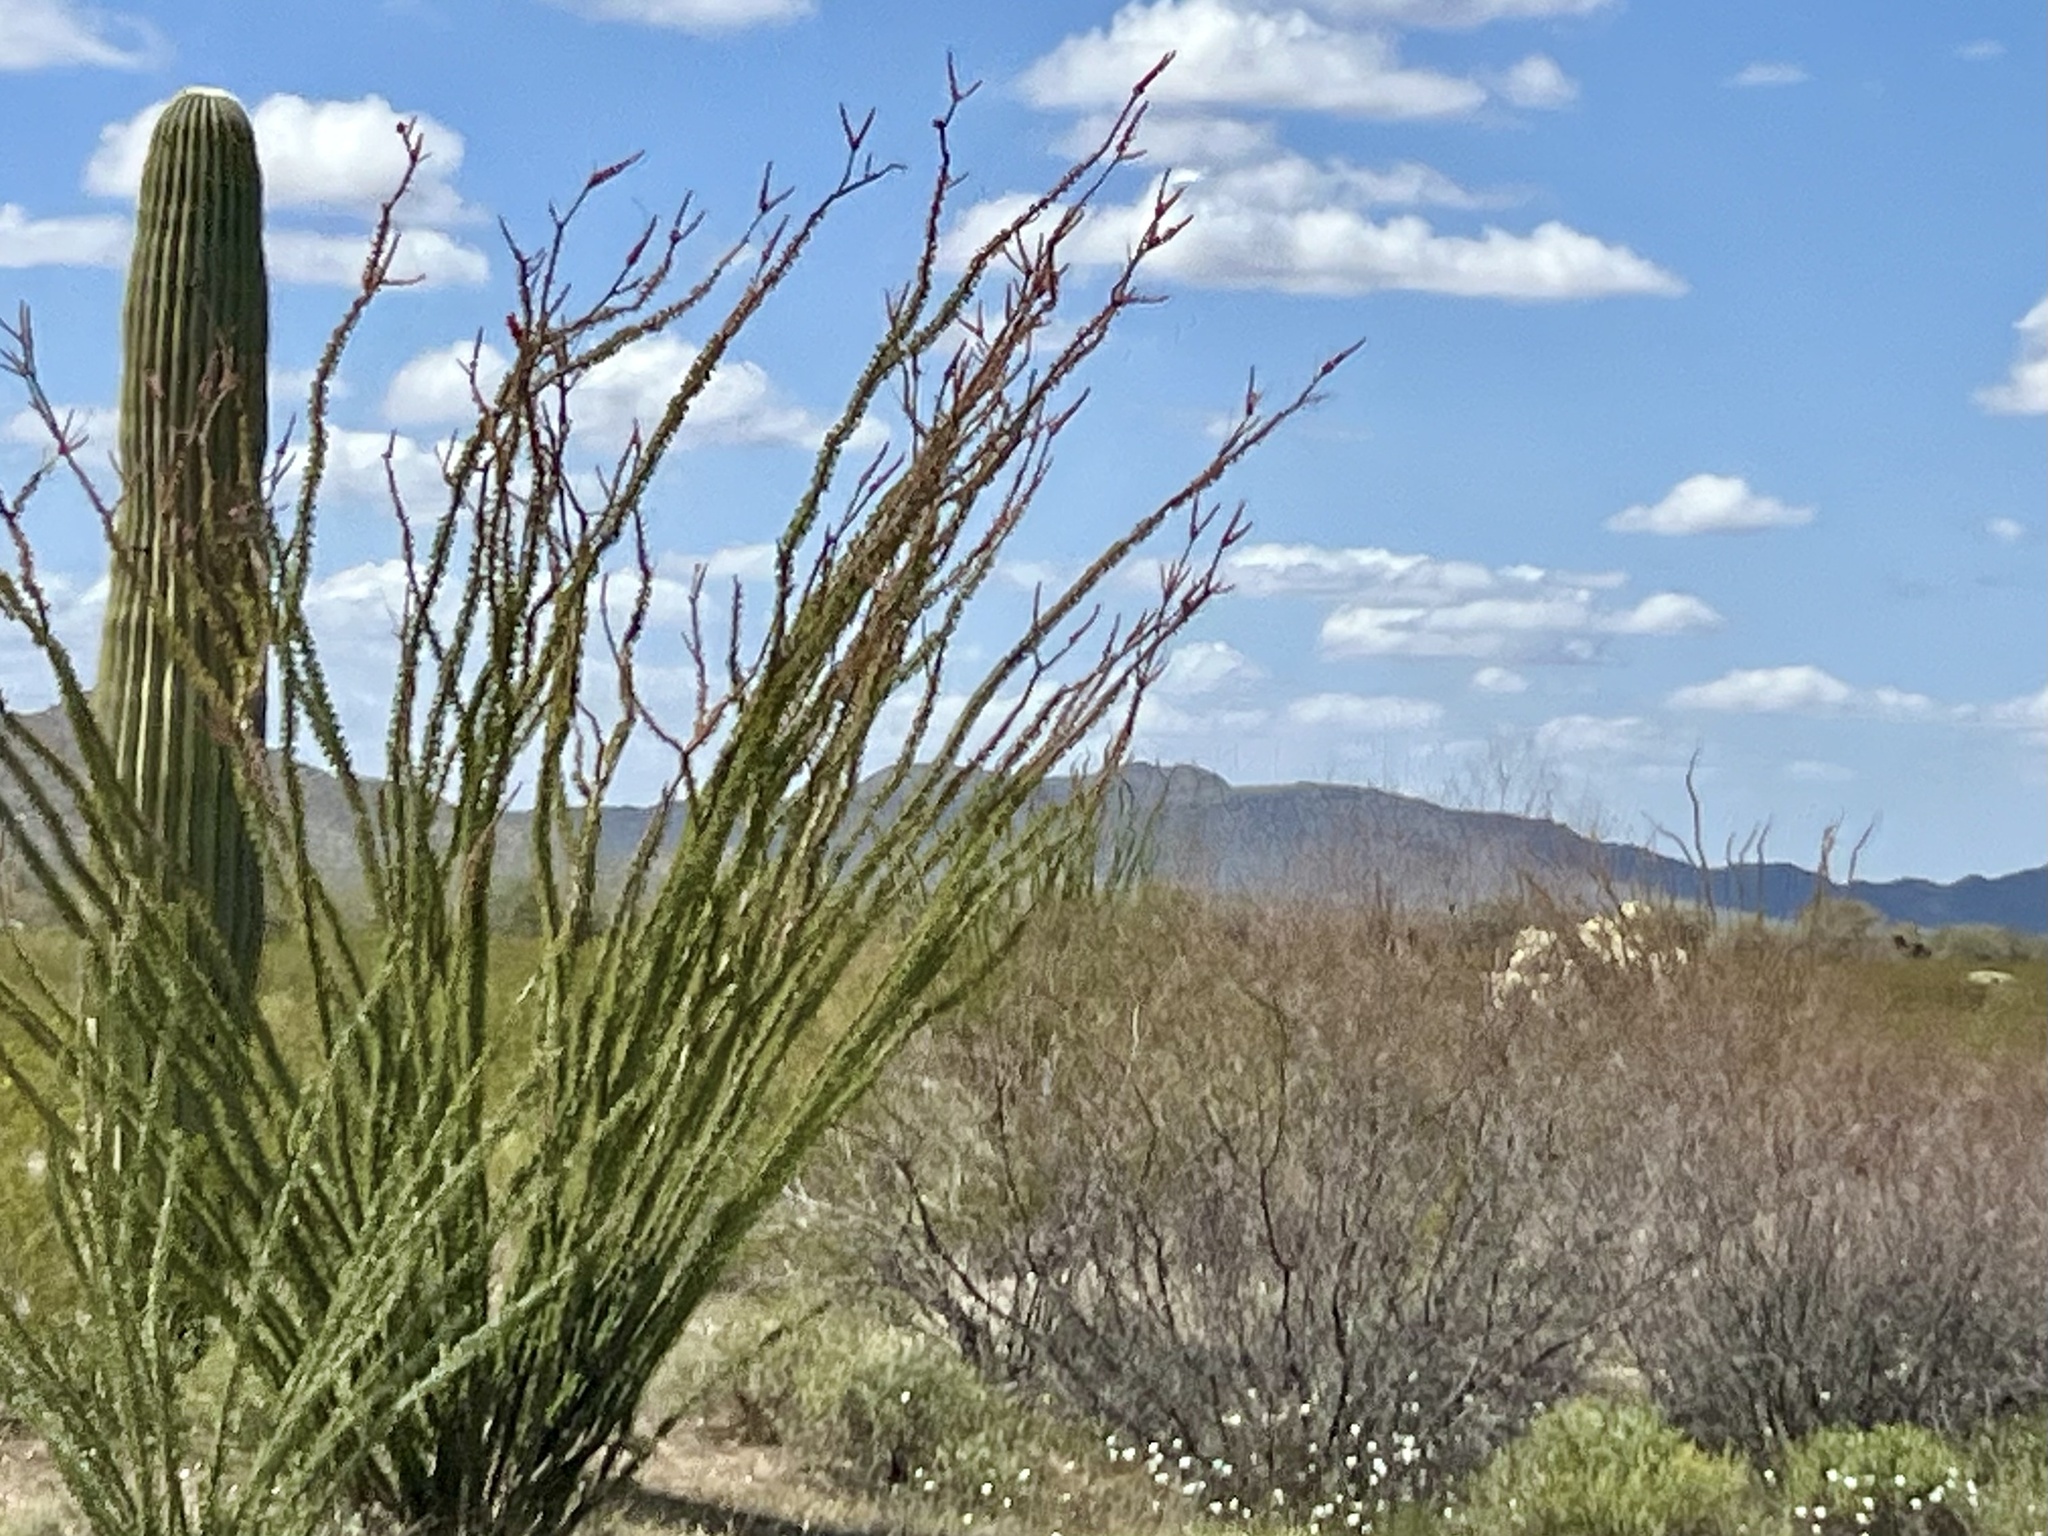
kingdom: Plantae
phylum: Tracheophyta
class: Magnoliopsida
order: Ericales
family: Fouquieriaceae
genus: Fouquieria
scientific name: Fouquieria splendens
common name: Vine-cactus
